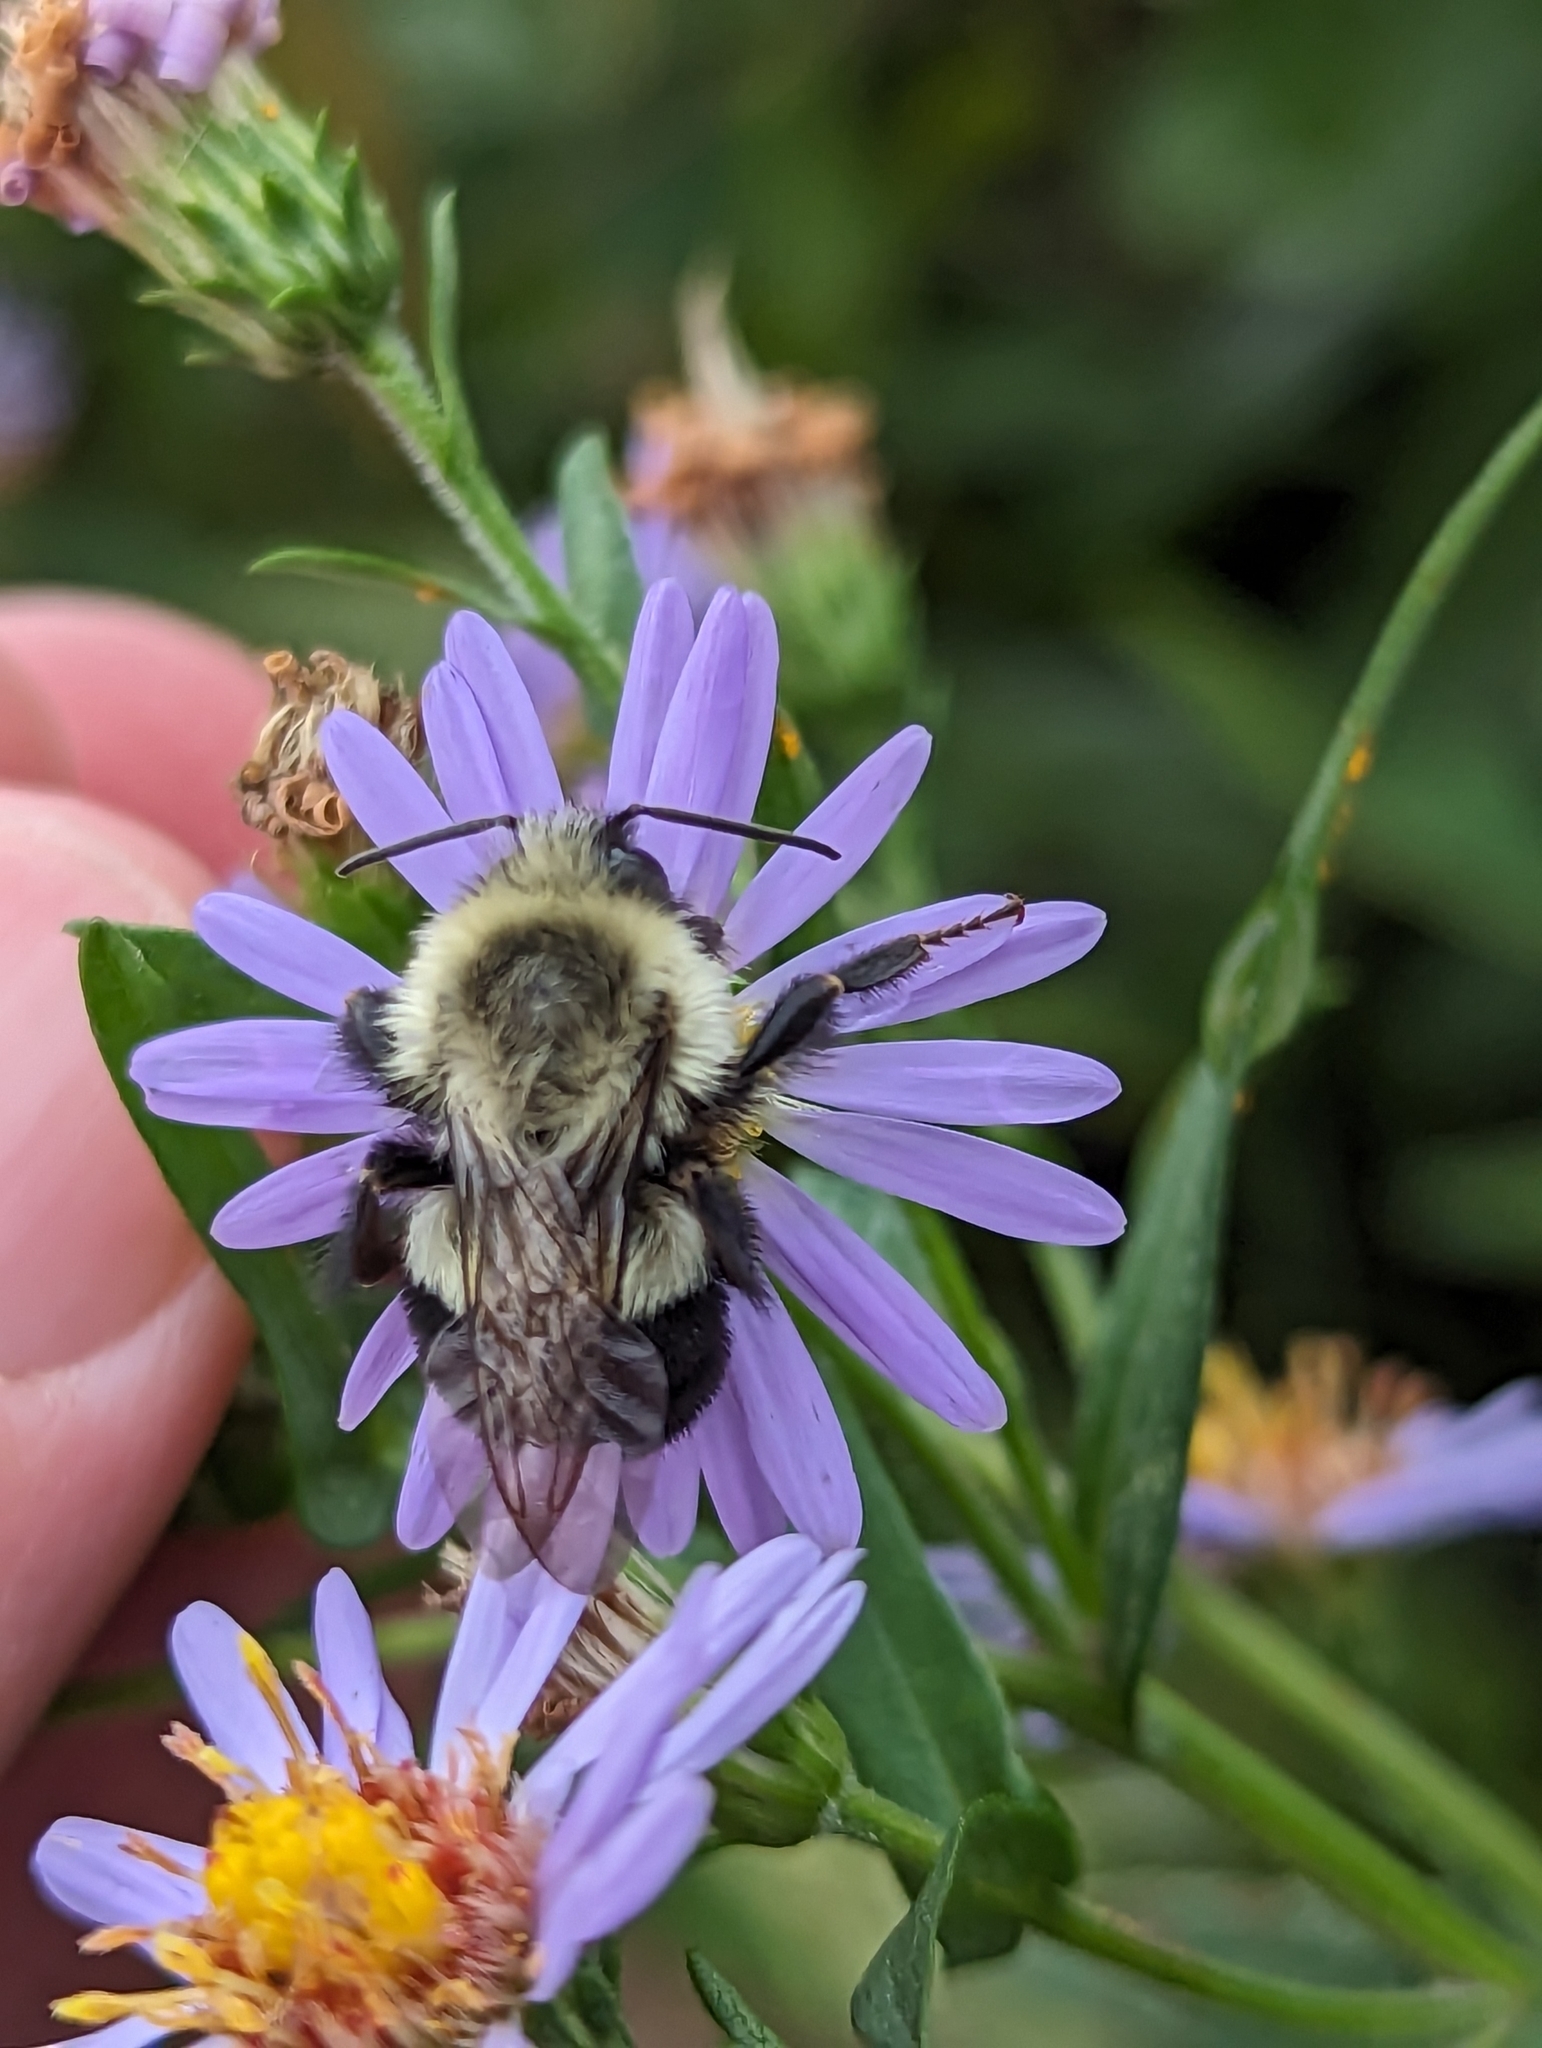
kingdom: Animalia
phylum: Arthropoda
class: Insecta
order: Hymenoptera
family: Apidae
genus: Bombus
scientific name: Bombus impatiens
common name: Common eastern bumble bee
